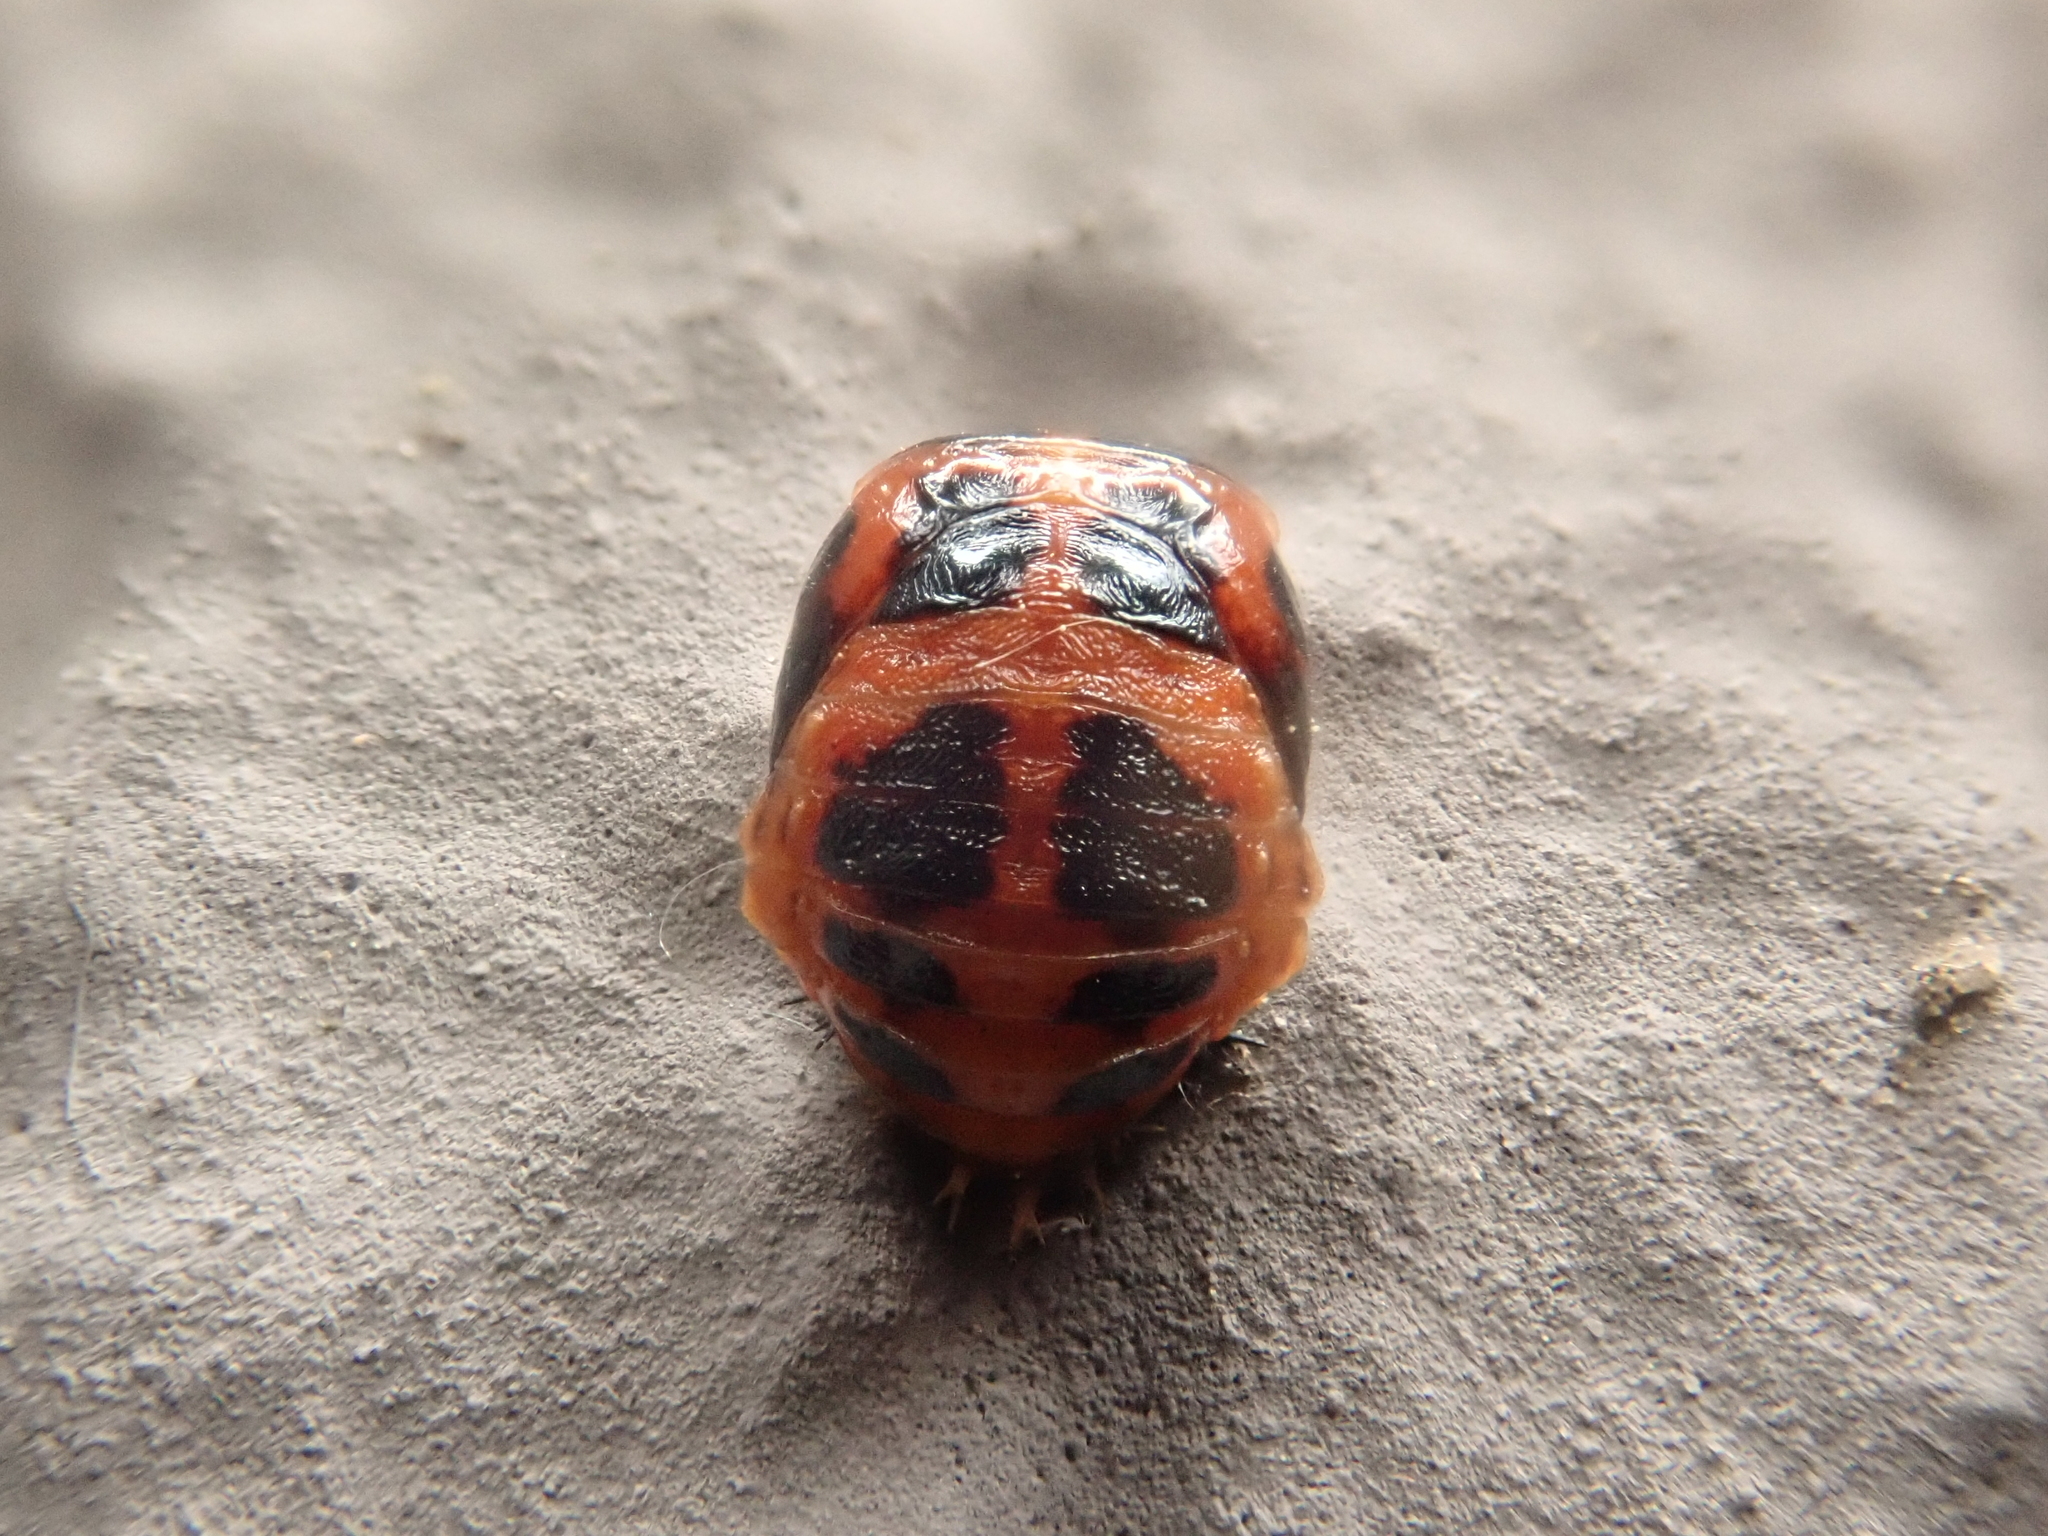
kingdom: Animalia
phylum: Arthropoda
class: Insecta
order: Coleoptera
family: Coccinellidae
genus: Harmonia
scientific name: Harmonia axyridis
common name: Harlequin ladybird
